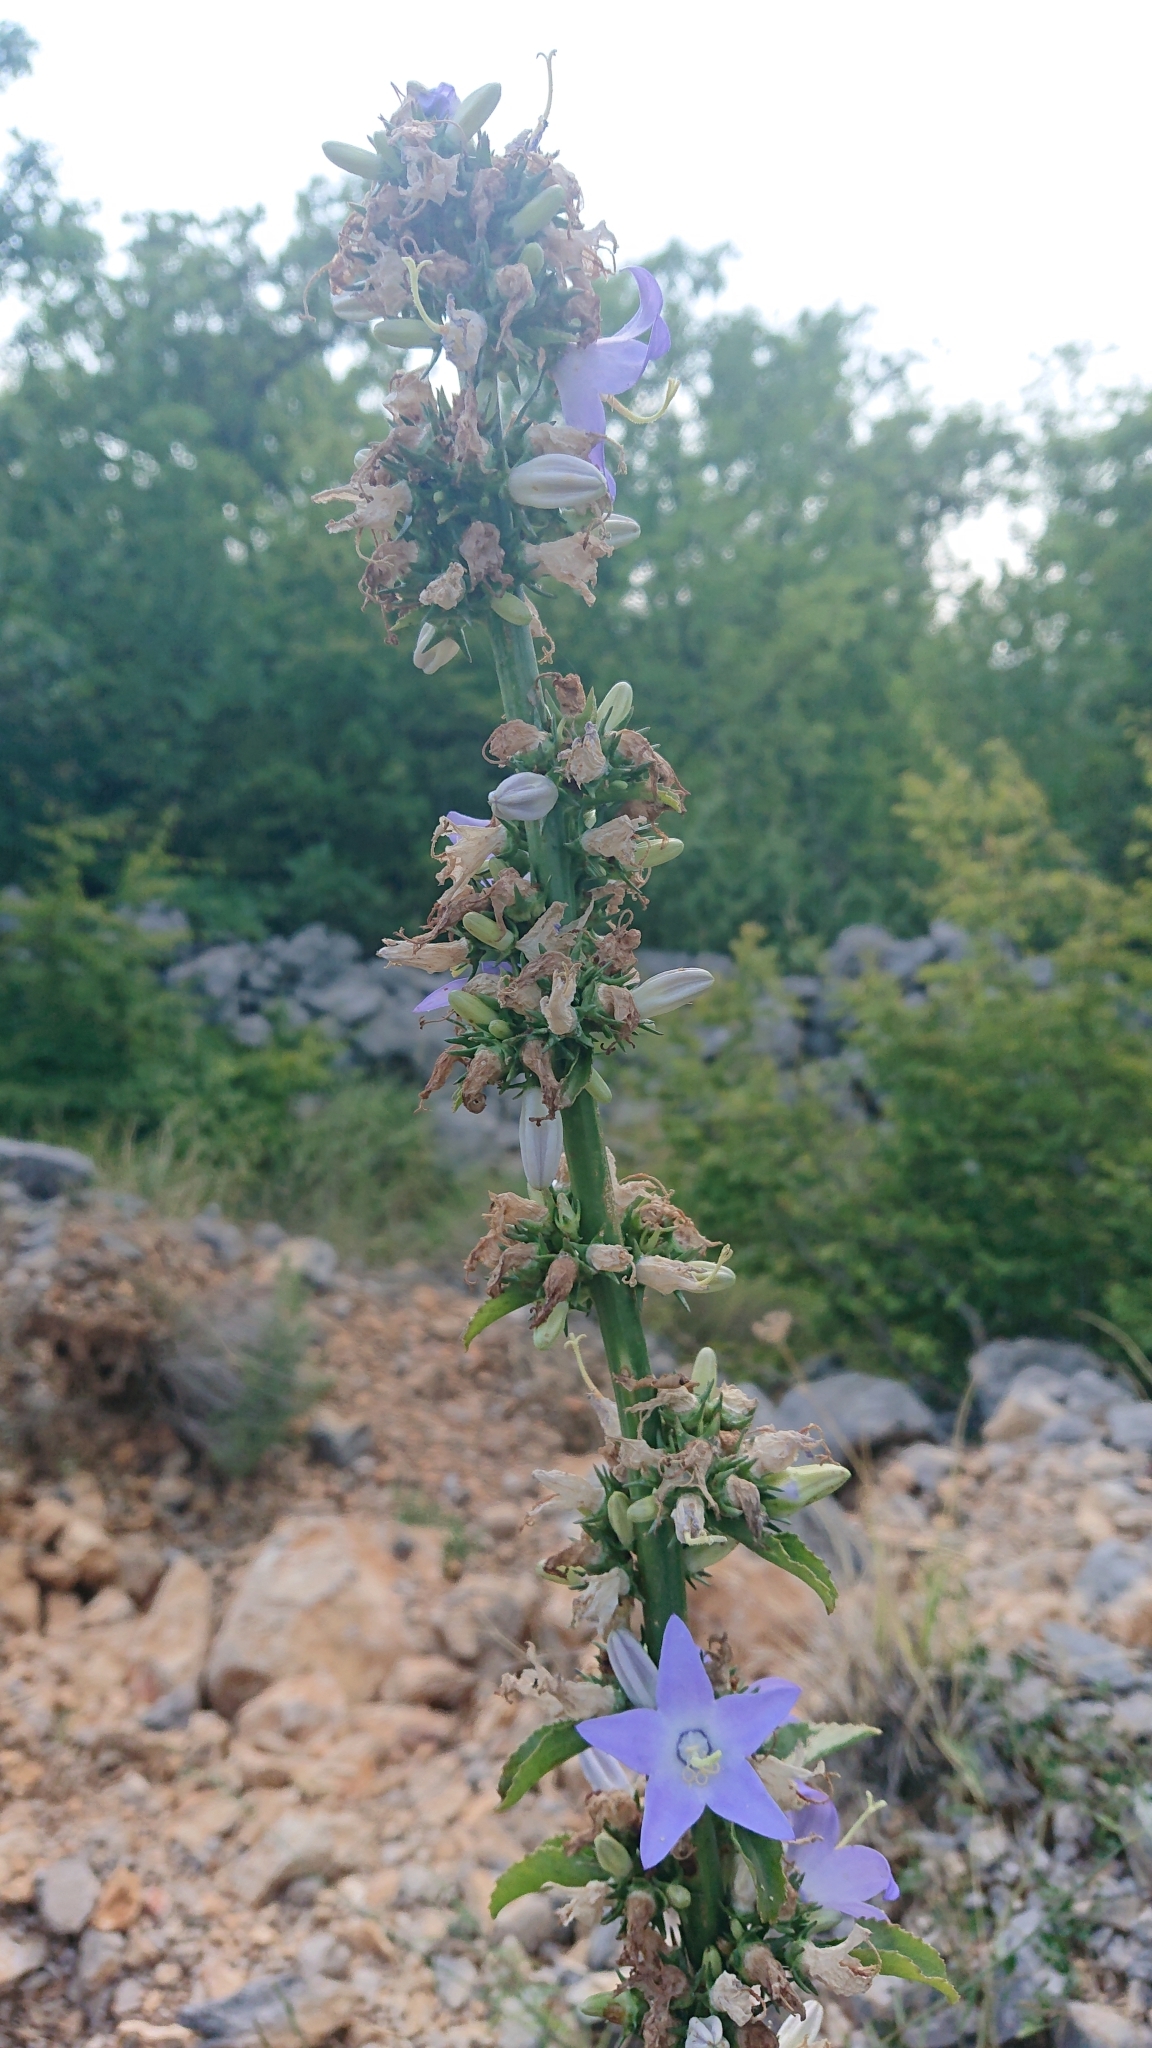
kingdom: Plantae
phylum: Tracheophyta
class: Magnoliopsida
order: Asterales
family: Campanulaceae
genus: Campanula
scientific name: Campanula pyramidalis
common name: Chimney bellflower
